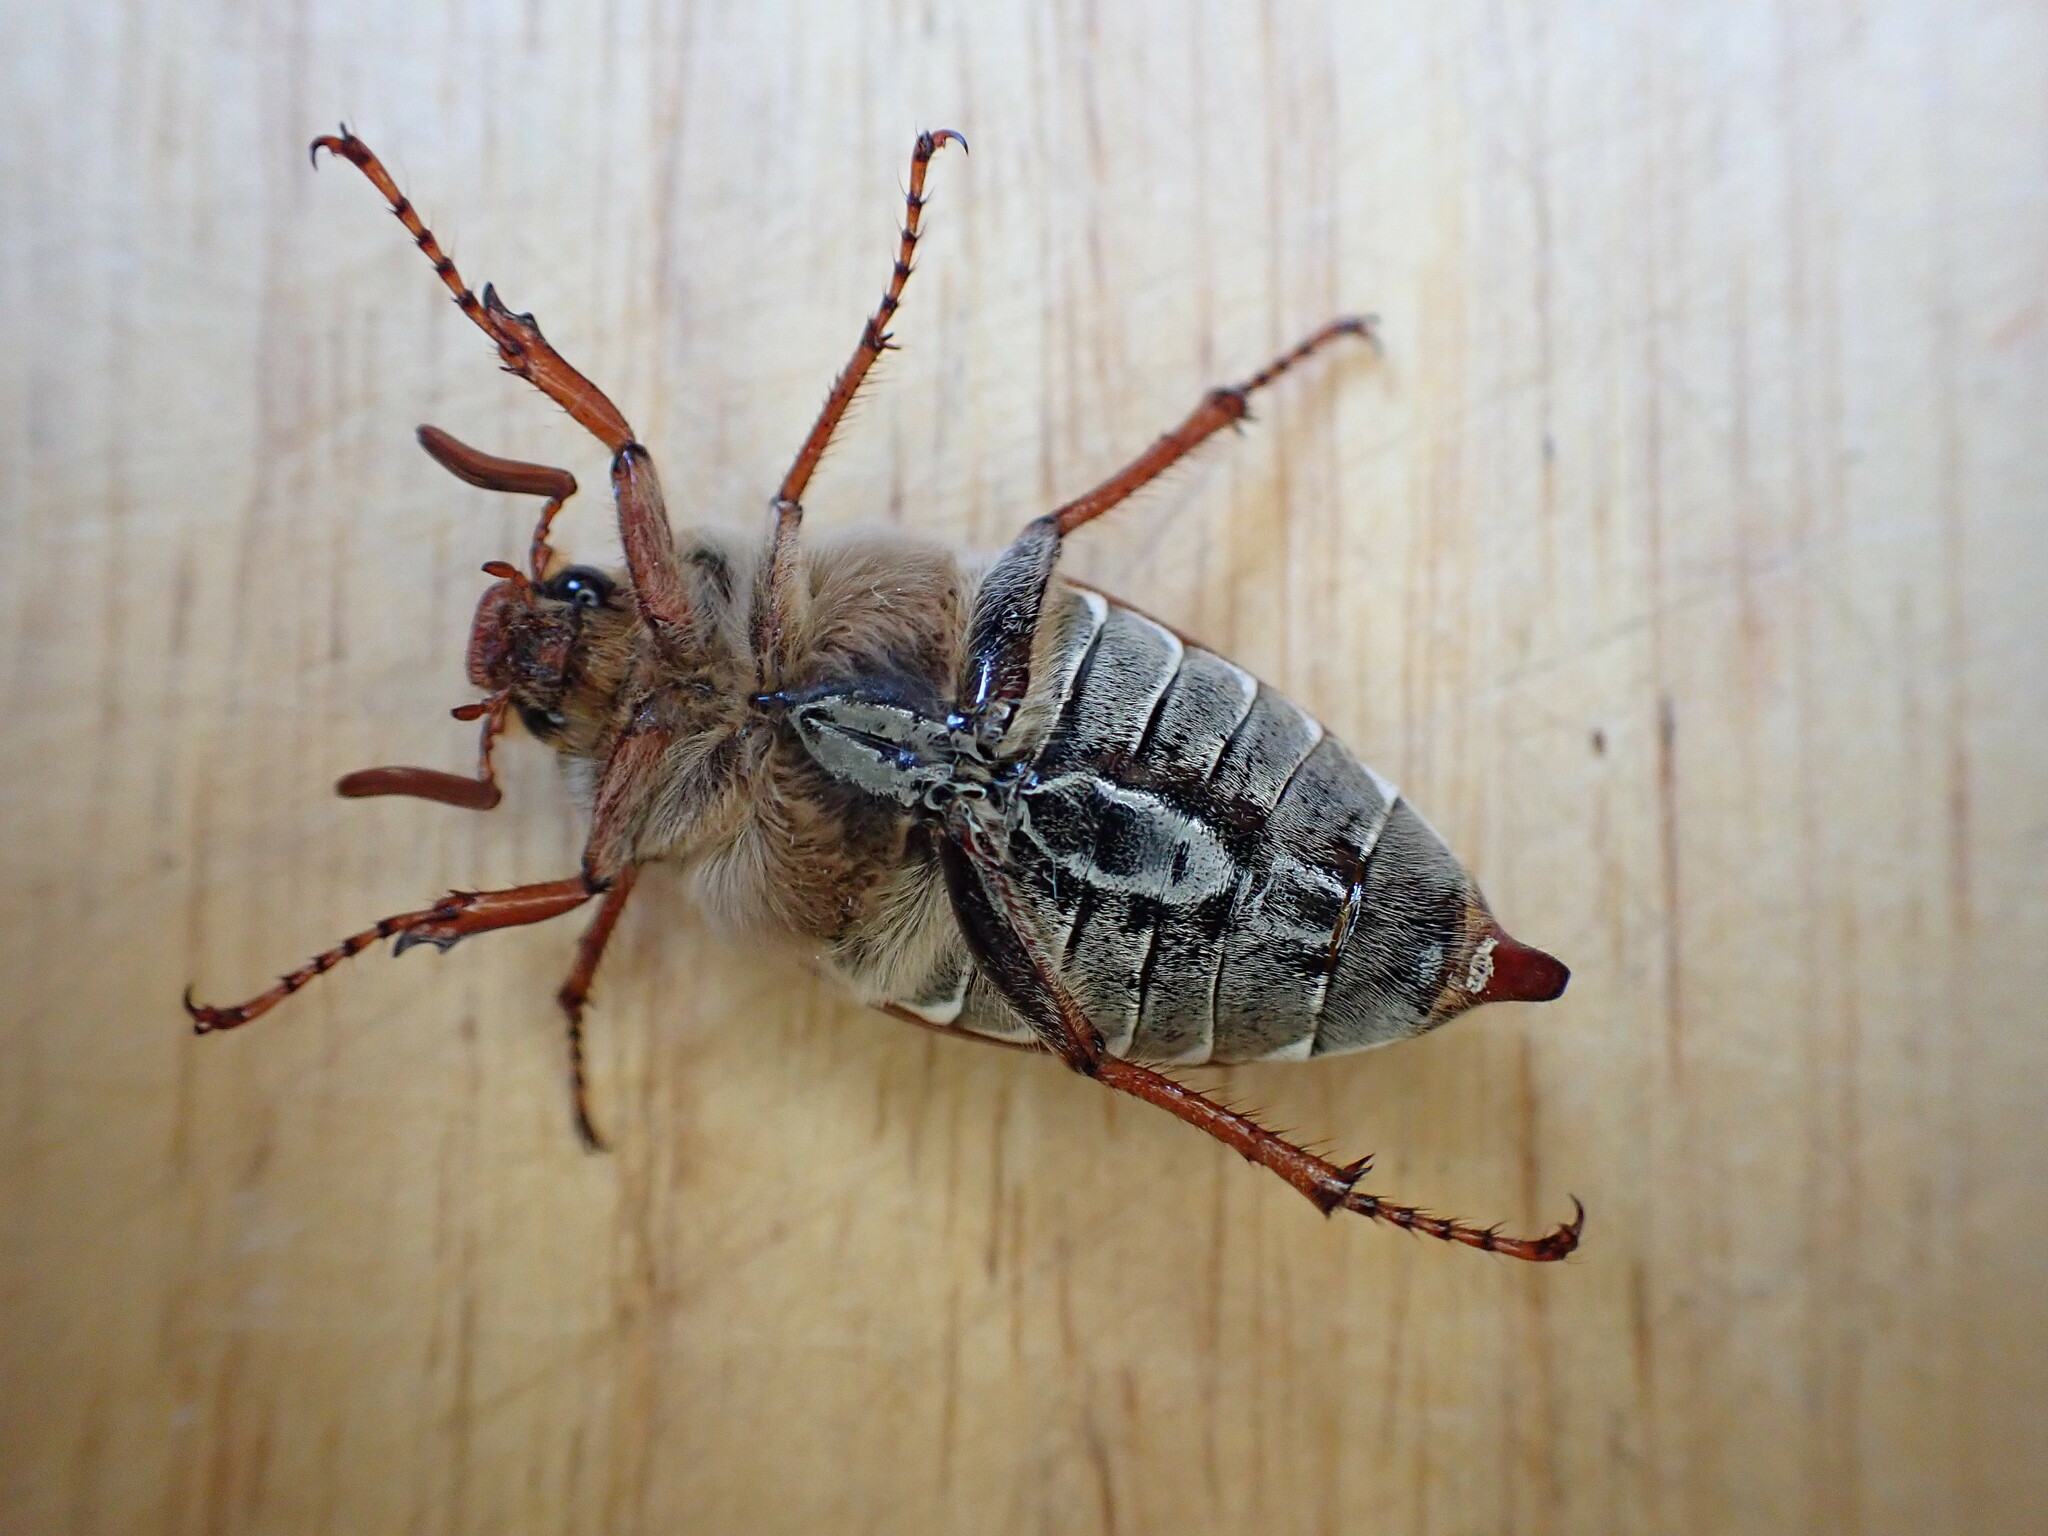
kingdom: Animalia
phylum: Arthropoda
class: Insecta
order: Coleoptera
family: Scarabaeidae
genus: Melolontha
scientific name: Melolontha melolontha
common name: Cockchafer maybeetle
